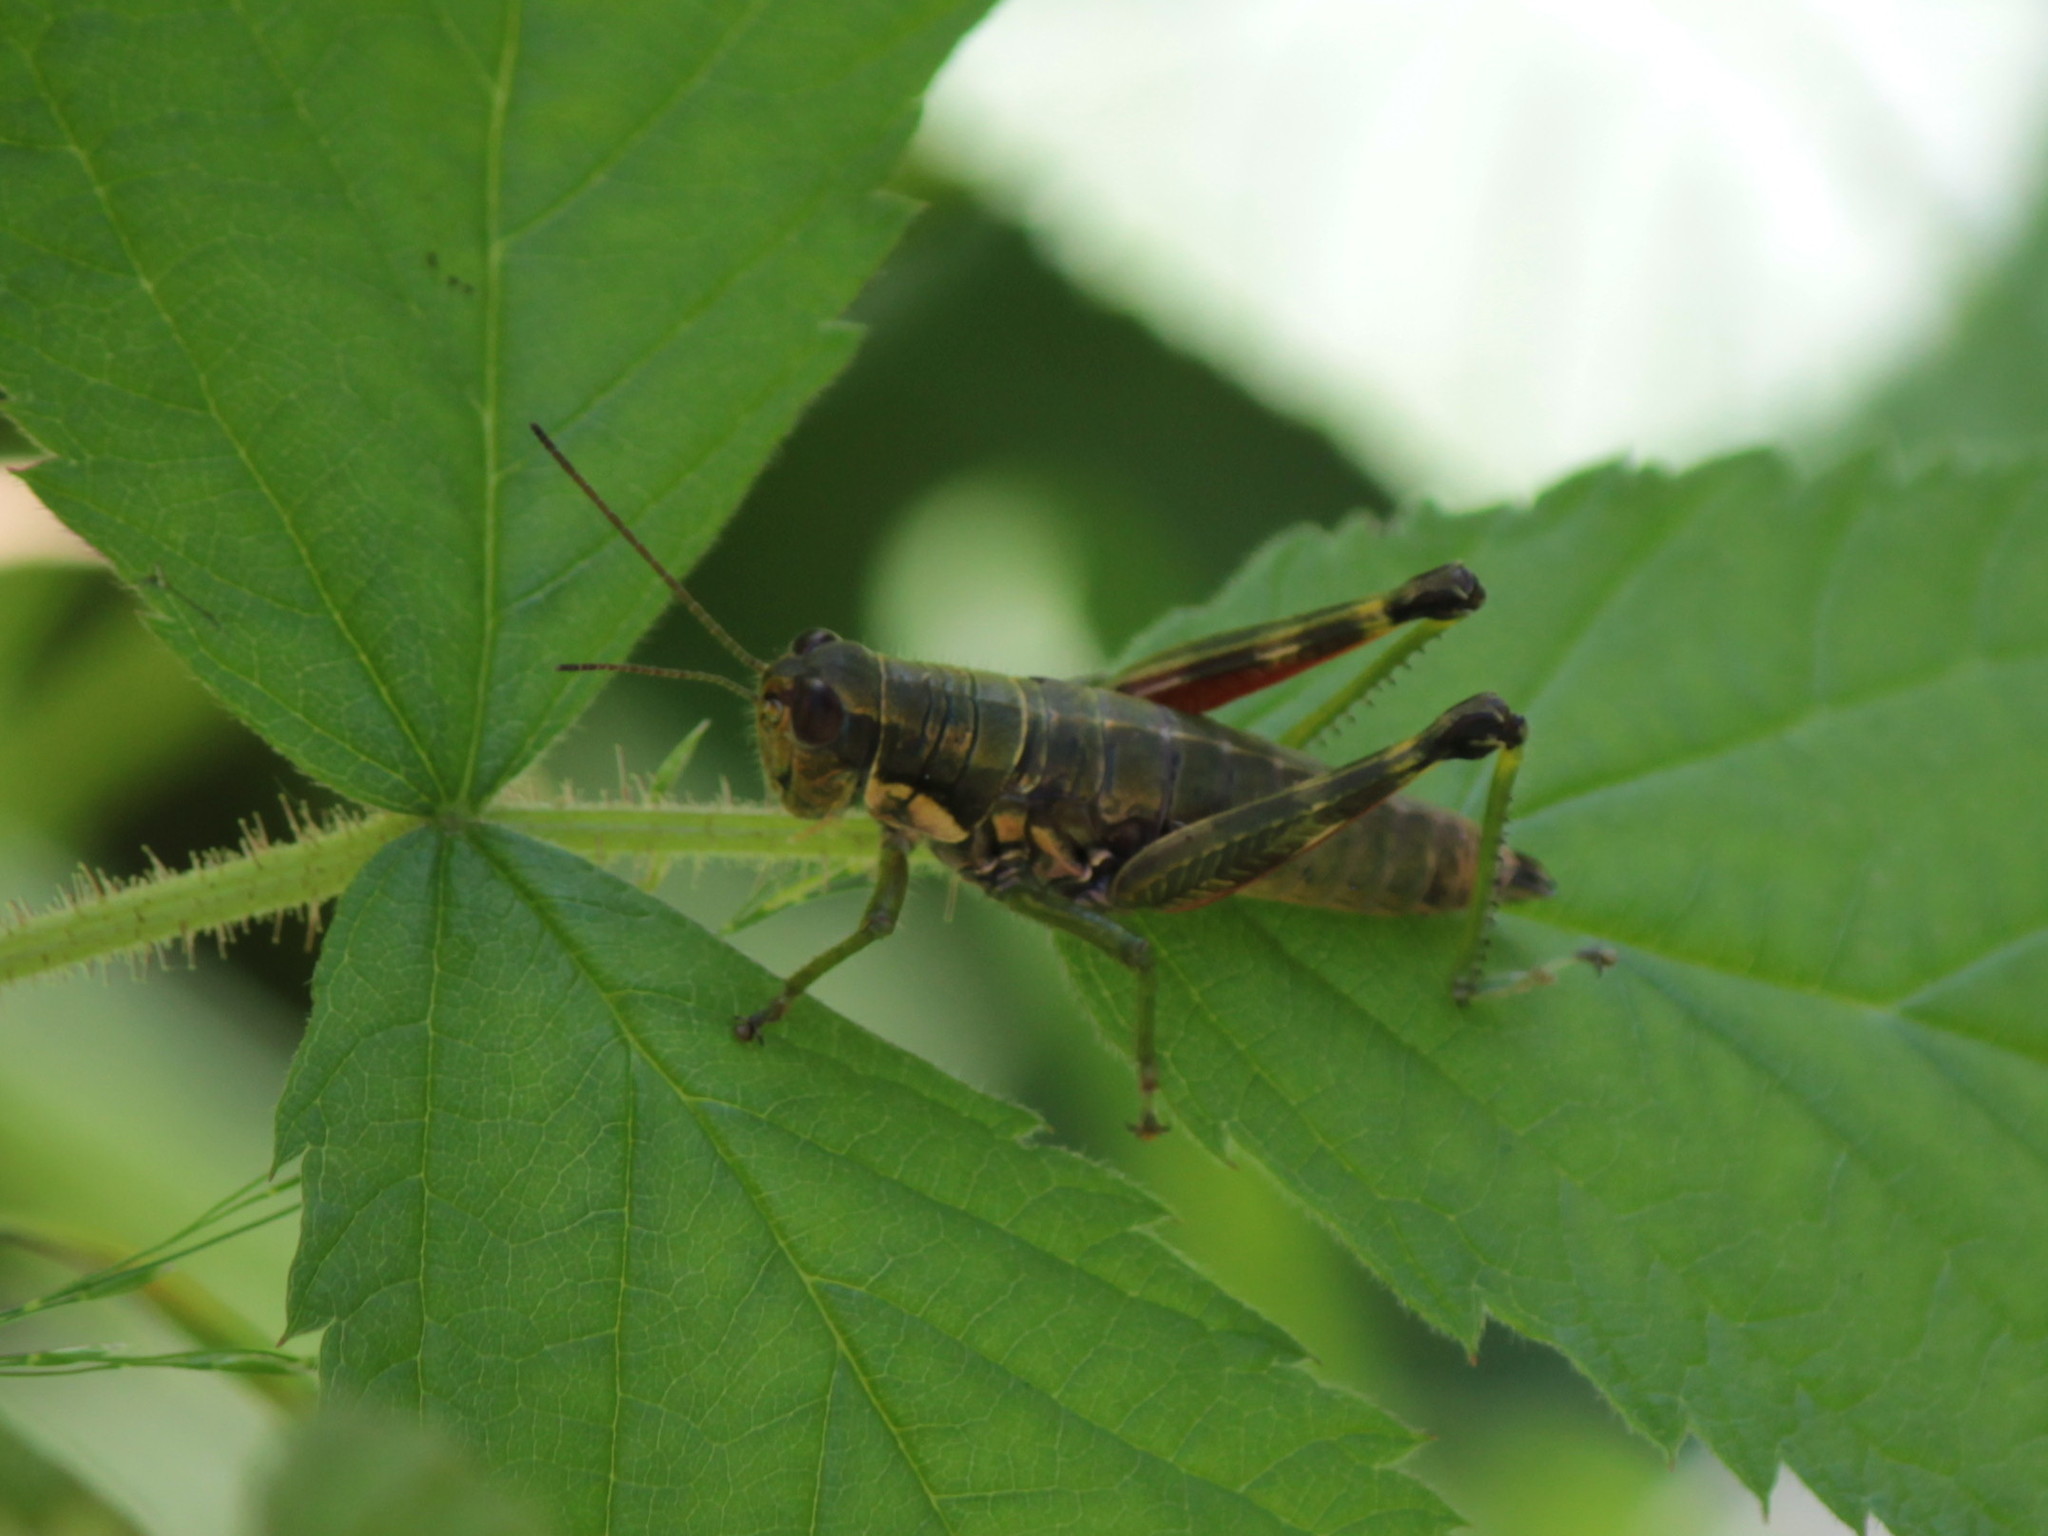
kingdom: Animalia
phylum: Arthropoda
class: Insecta
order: Orthoptera
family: Acrididae
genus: Booneacris
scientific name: Booneacris glacialis
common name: Wingless mountain grasshopper
